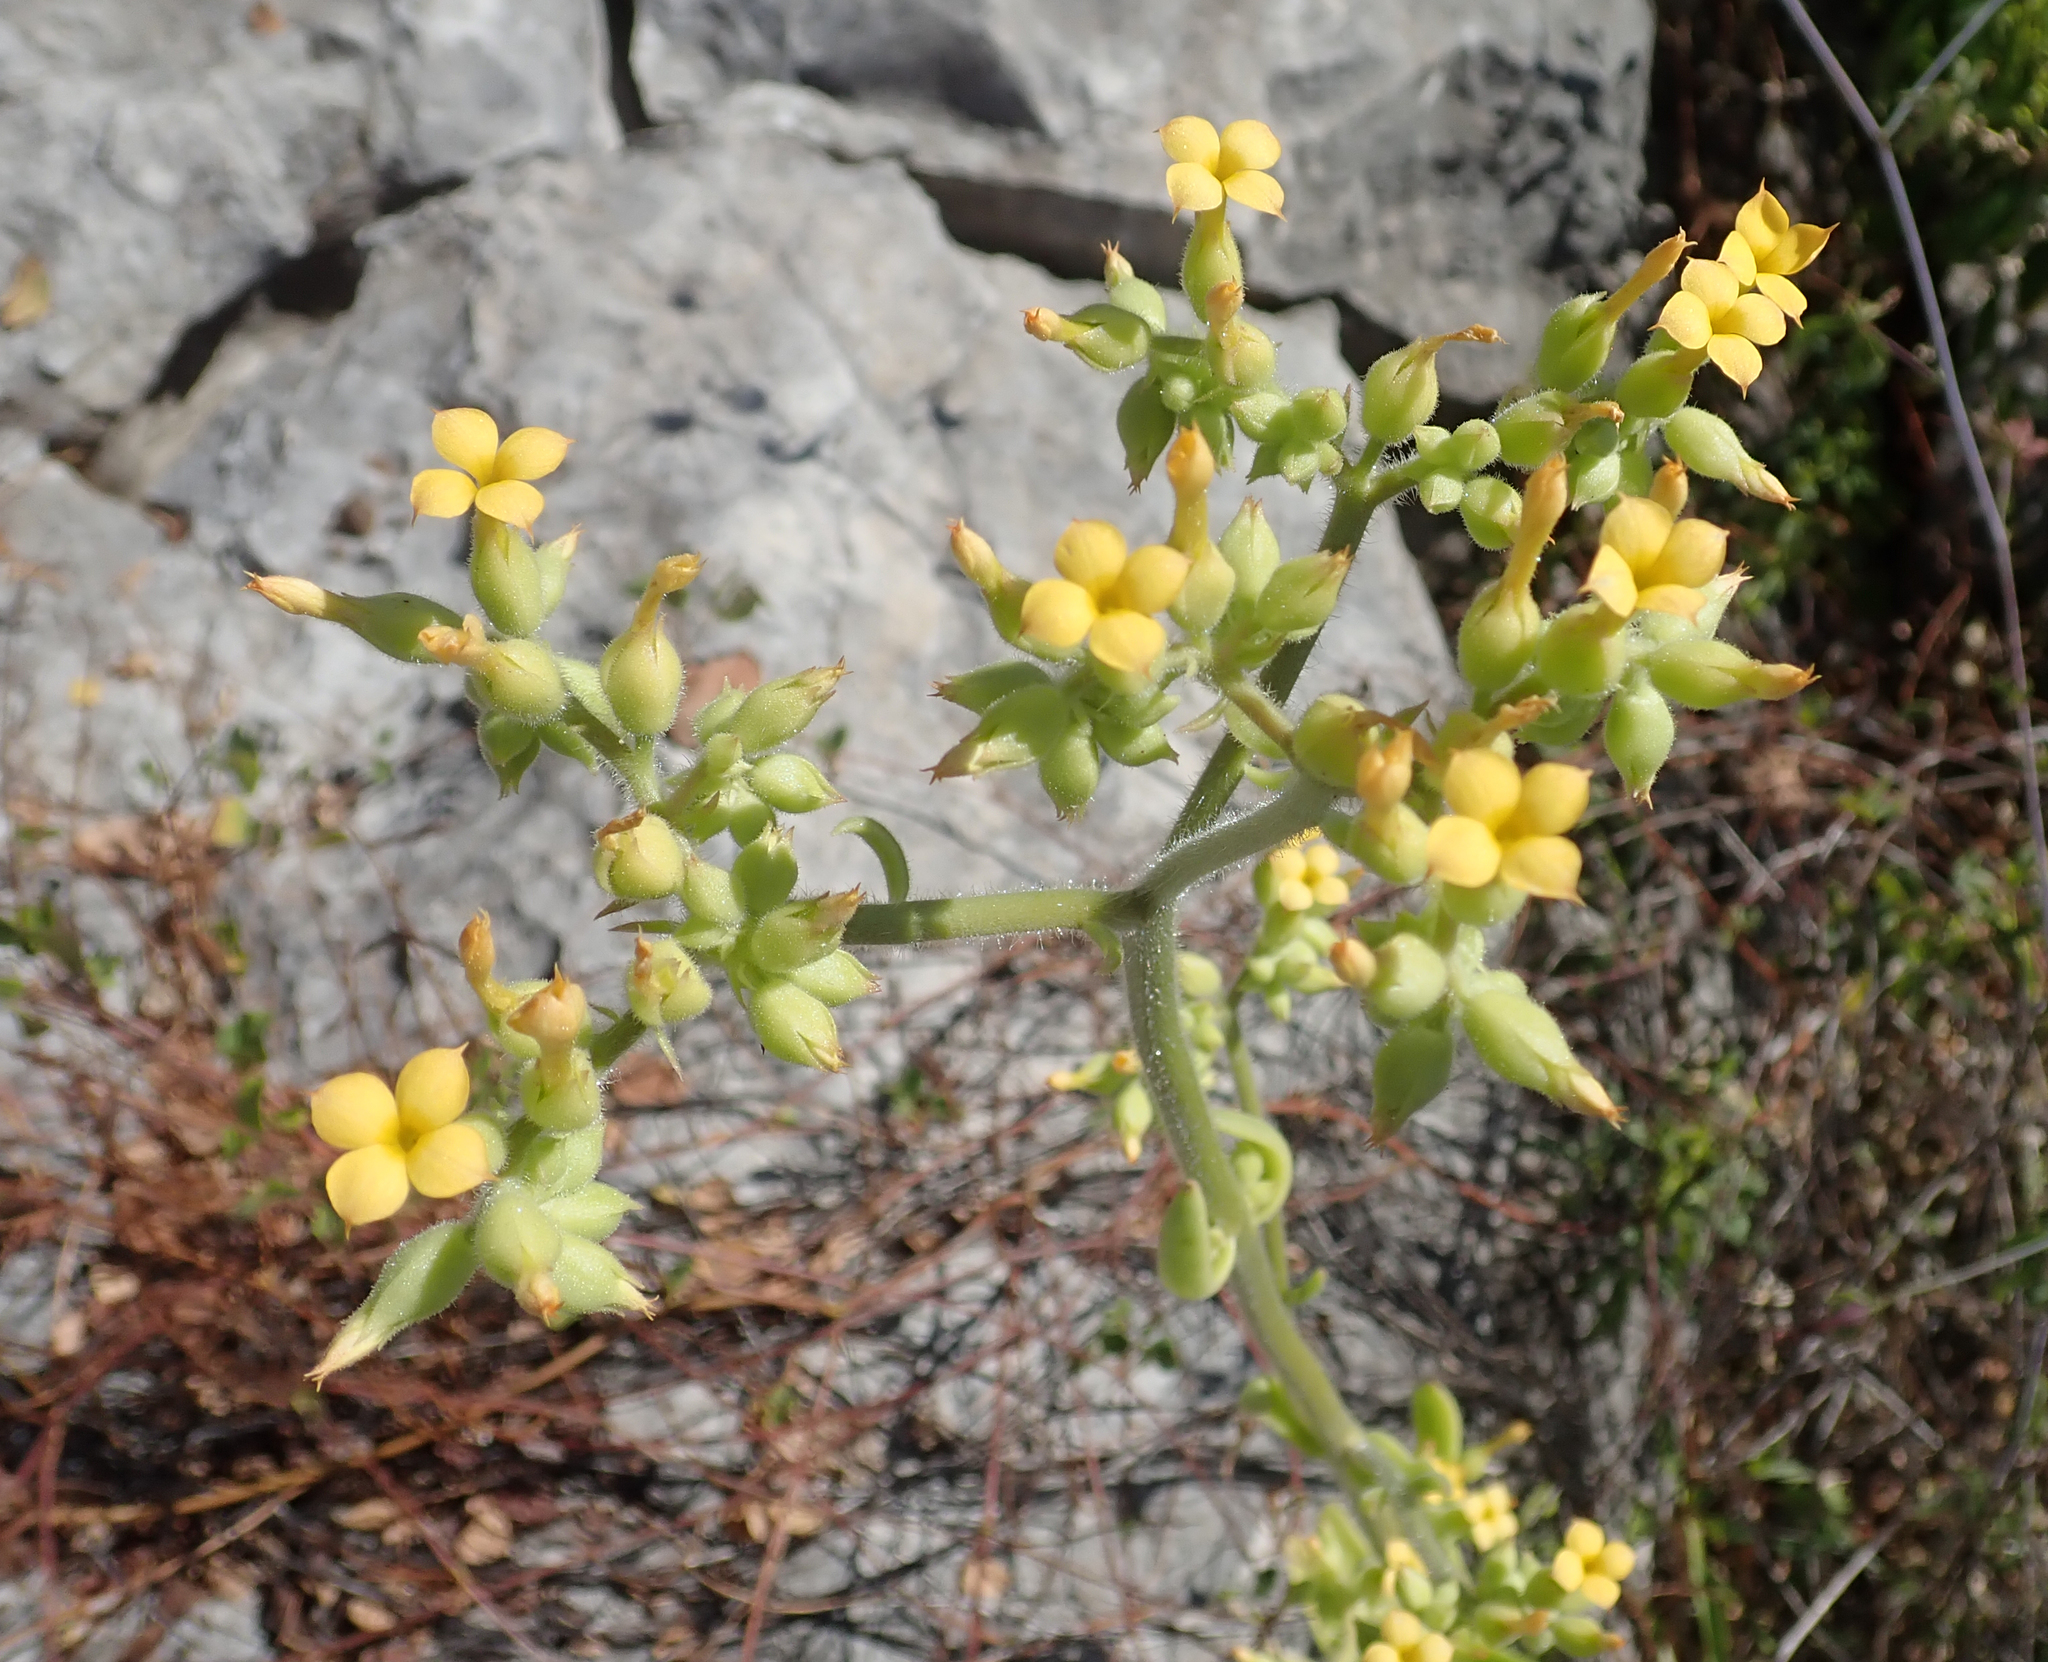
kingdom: Plantae
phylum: Tracheophyta
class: Magnoliopsida
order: Saxifragales
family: Crassulaceae
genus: Kalanchoe
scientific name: Kalanchoe lanceolata
